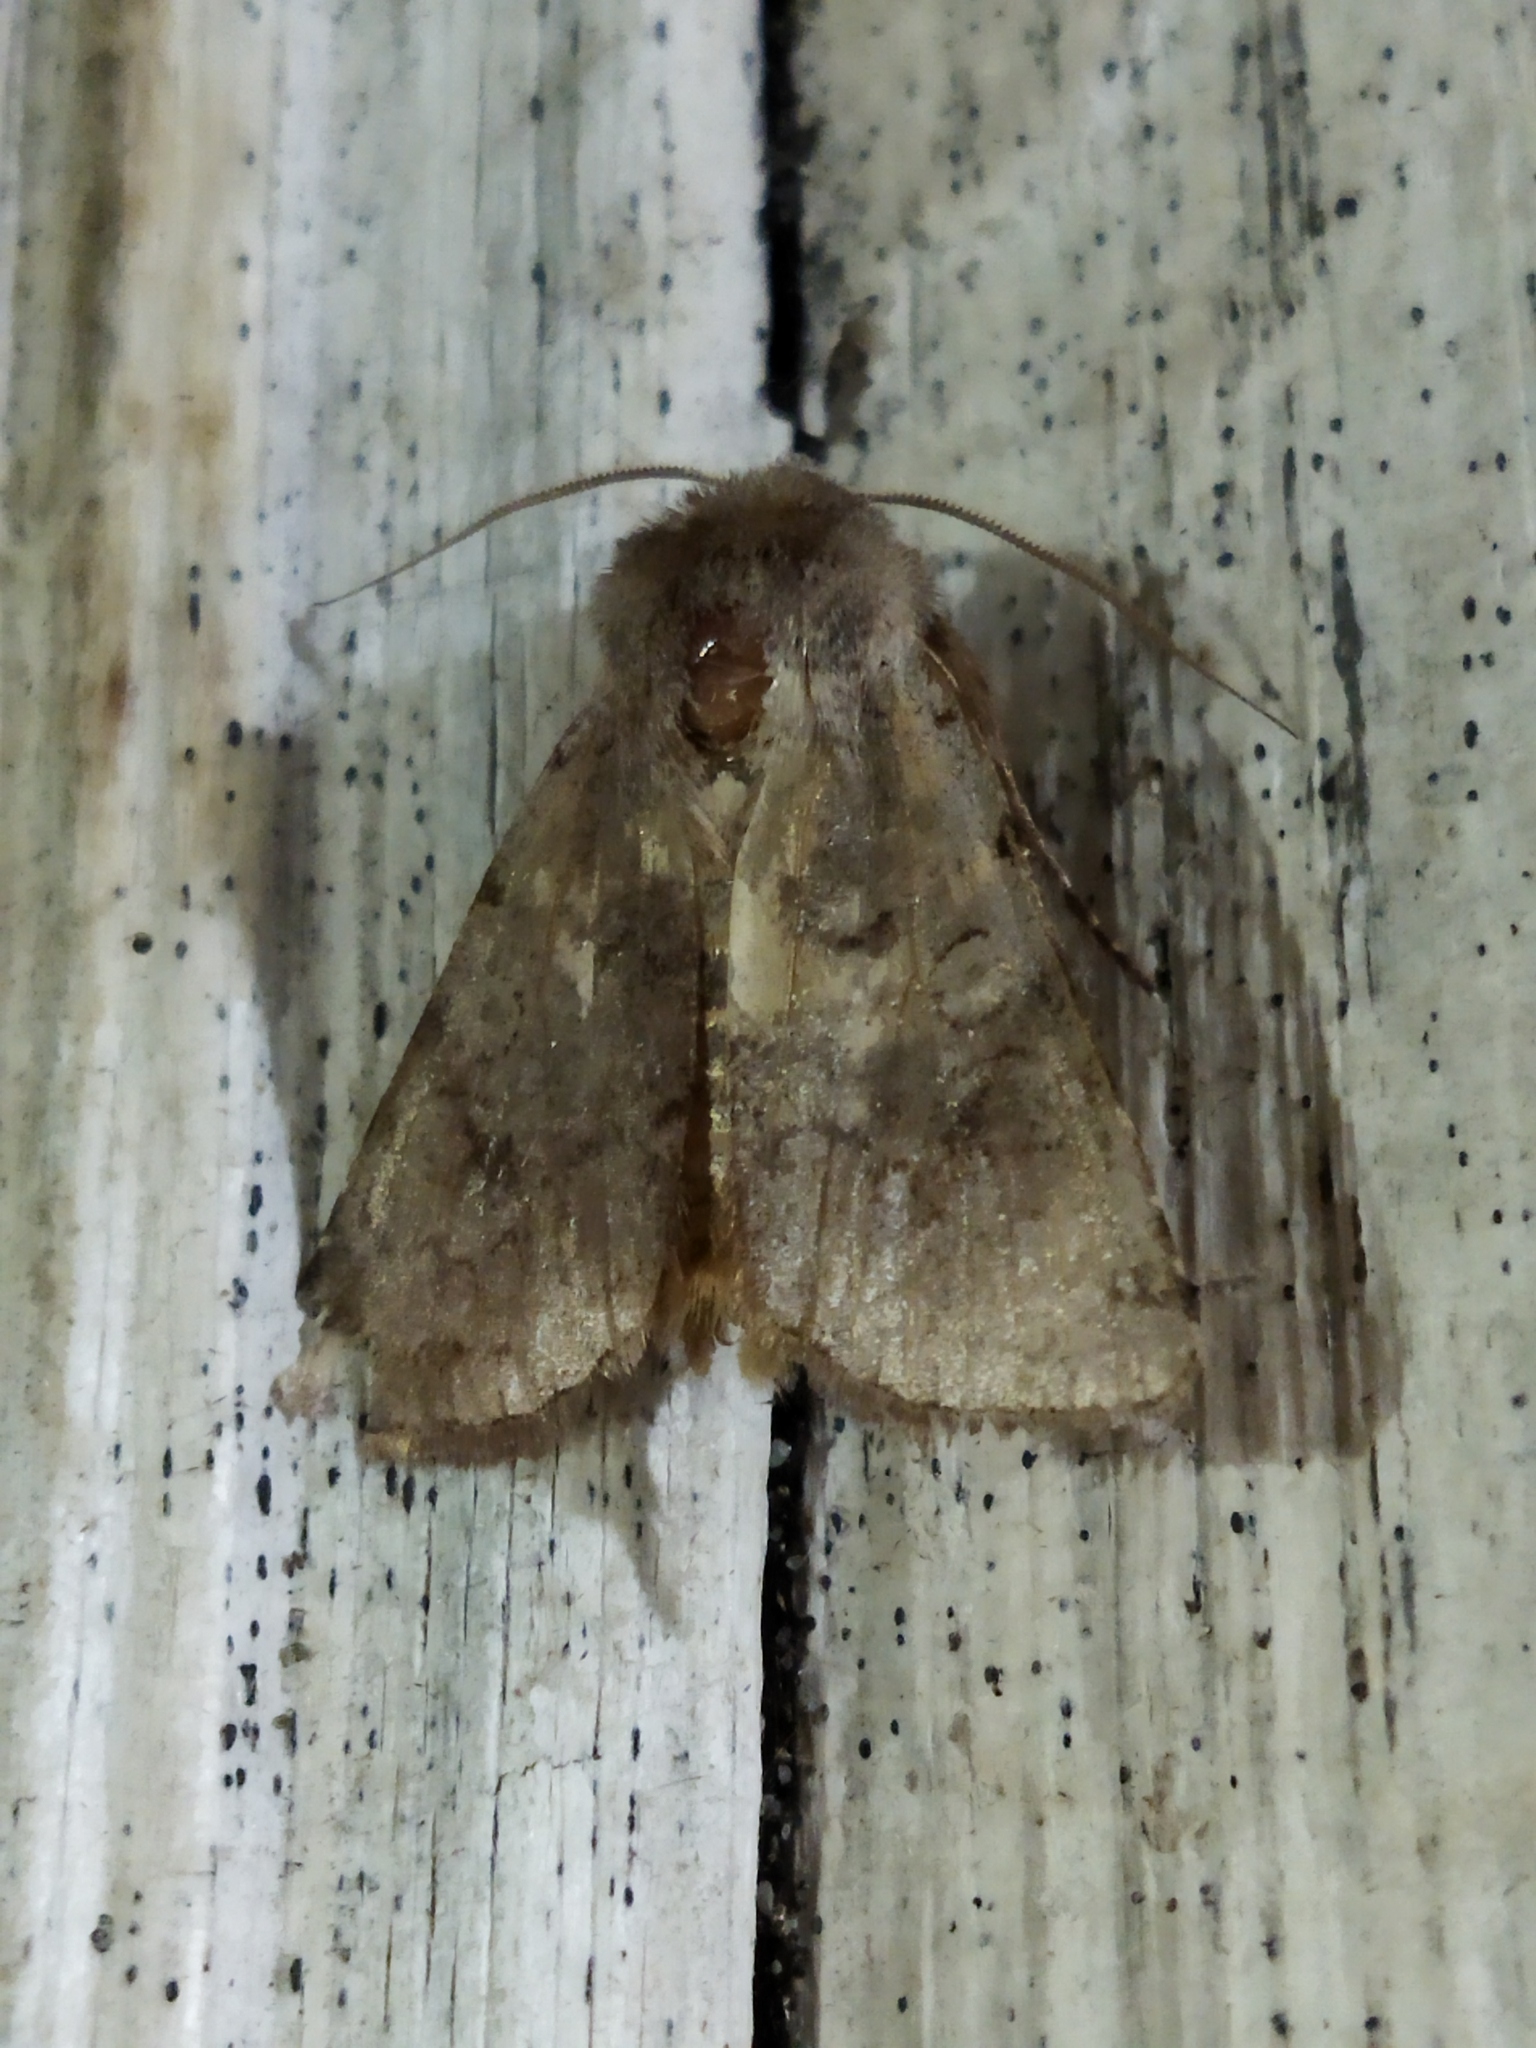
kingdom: Animalia
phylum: Arthropoda
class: Insecta
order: Lepidoptera
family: Noctuidae
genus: Cerastis
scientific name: Cerastis rubricosa
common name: Red chestnut
